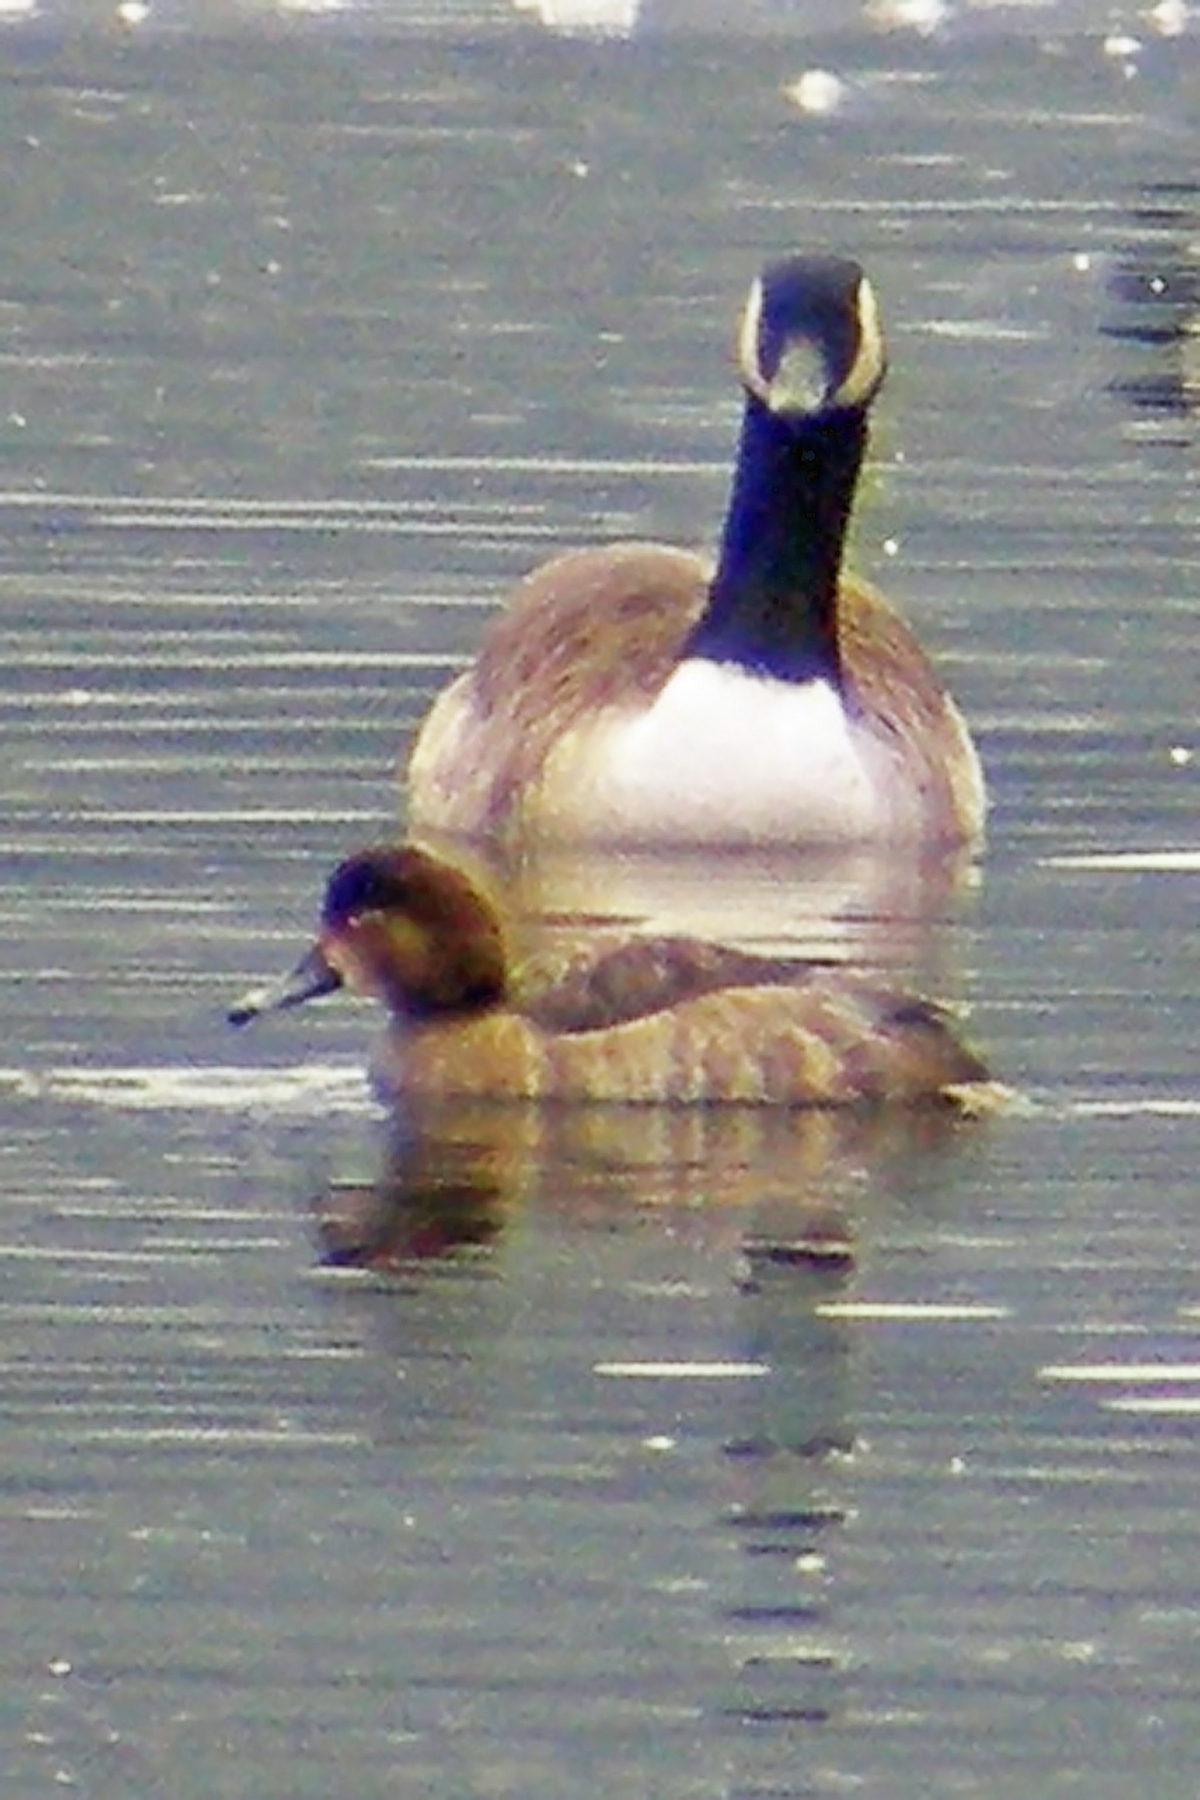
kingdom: Animalia
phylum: Chordata
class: Aves
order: Anseriformes
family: Anatidae
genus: Aythya
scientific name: Aythya americana
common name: Redhead
